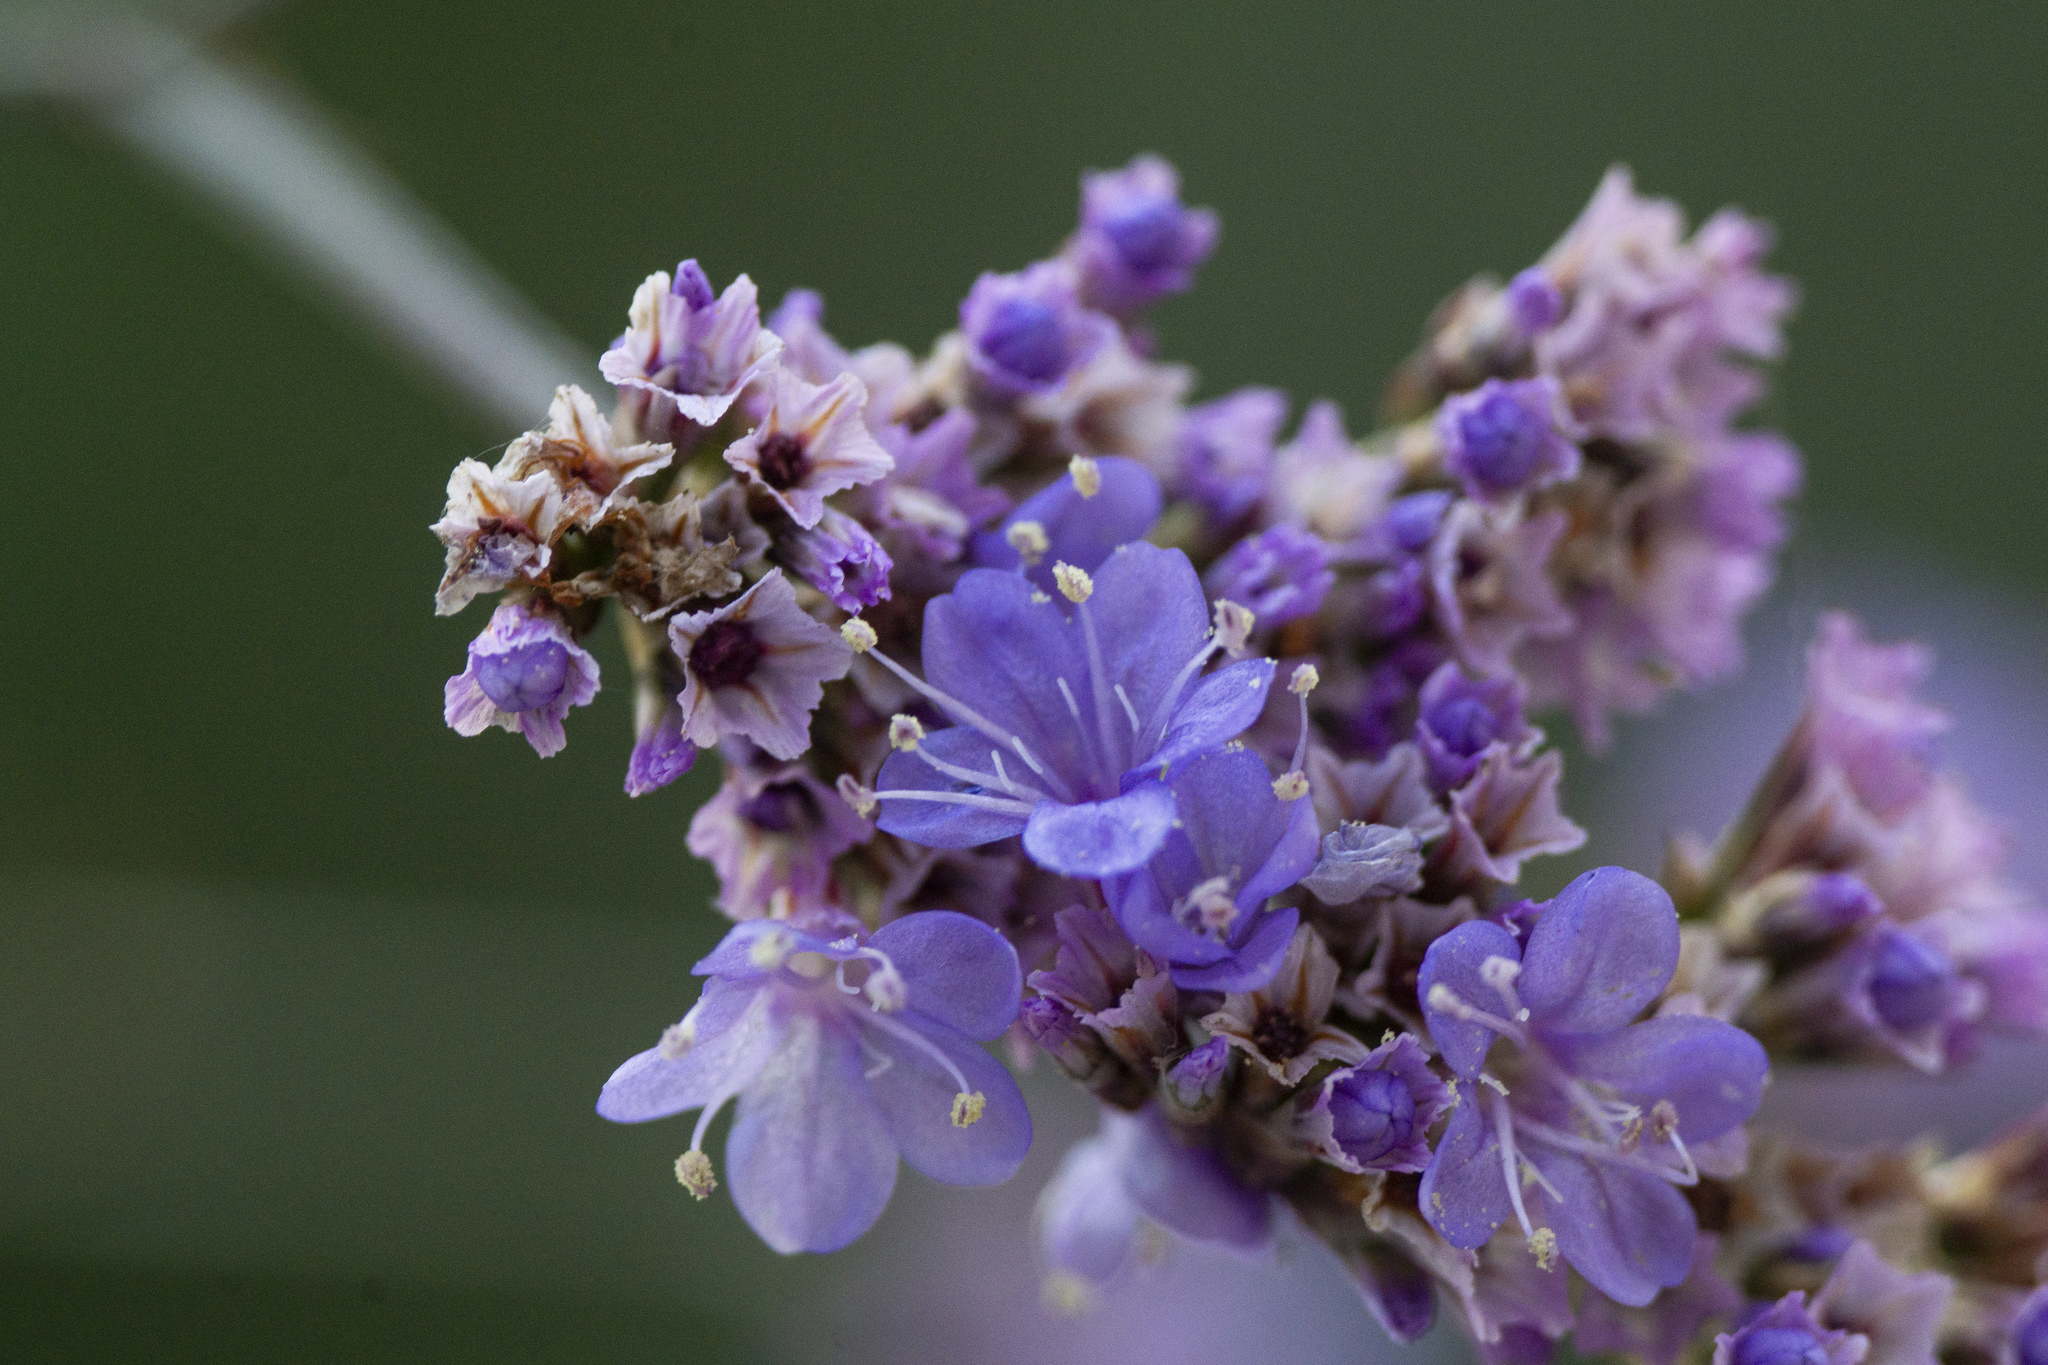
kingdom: Plantae
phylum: Tracheophyta
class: Magnoliopsida
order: Caryophyllales
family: Plumbaginaceae
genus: Limonium
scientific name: Limonium gmelini
